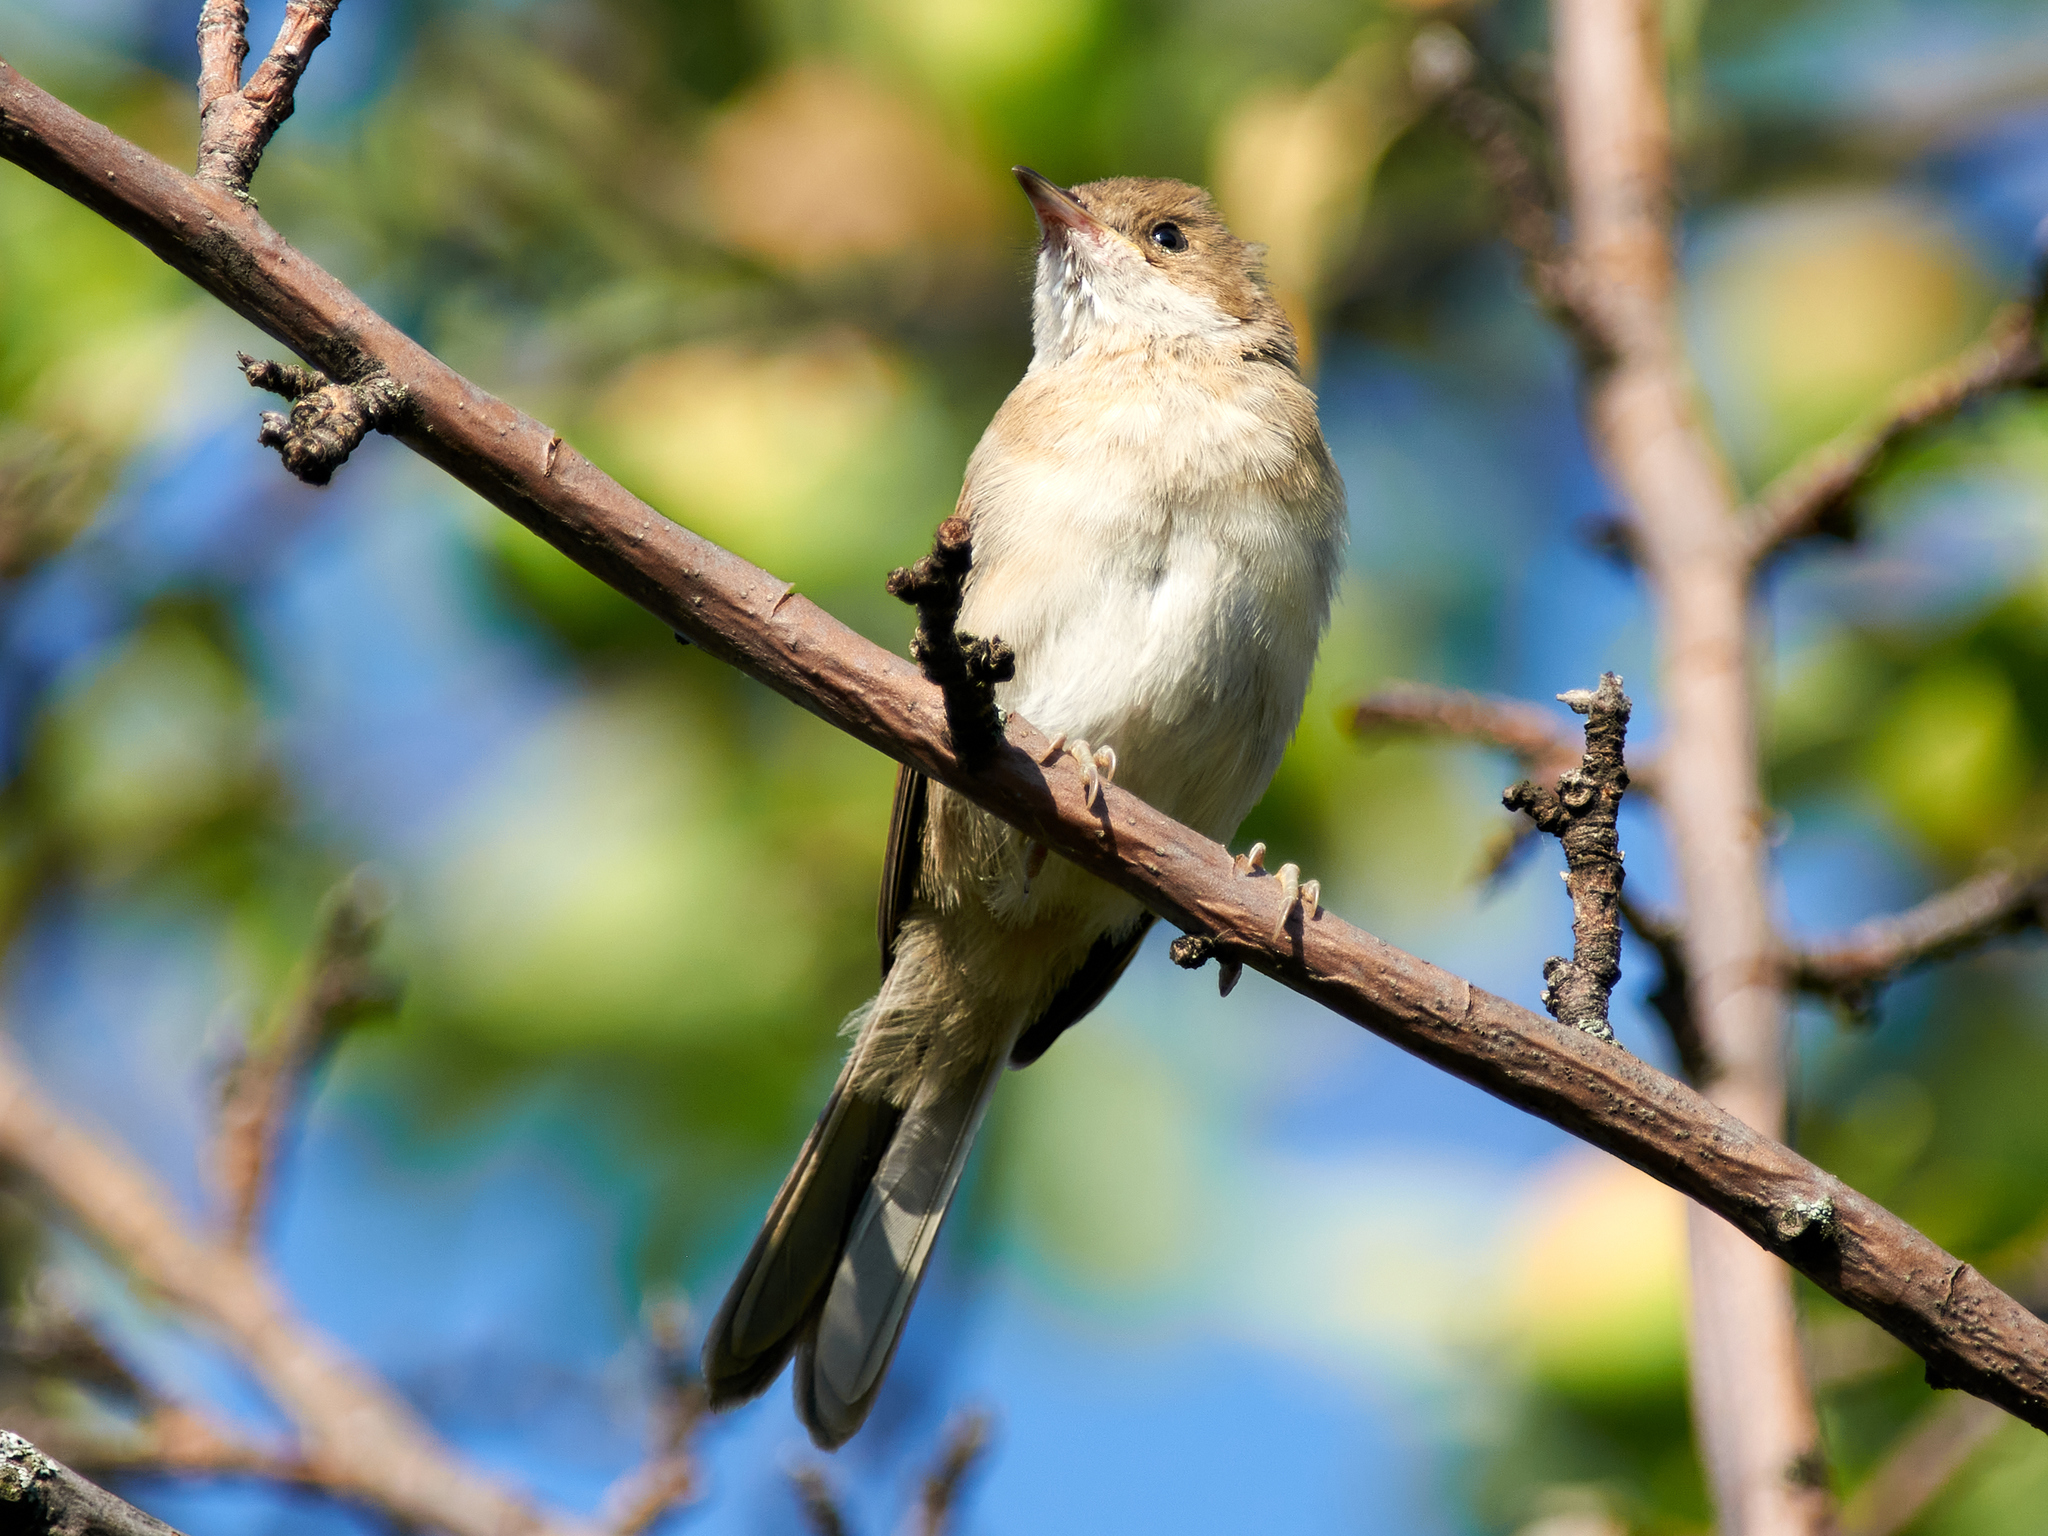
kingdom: Animalia
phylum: Chordata
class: Aves
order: Passeriformes
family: Sylviidae
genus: Sylvia
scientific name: Sylvia communis
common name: Common whitethroat
